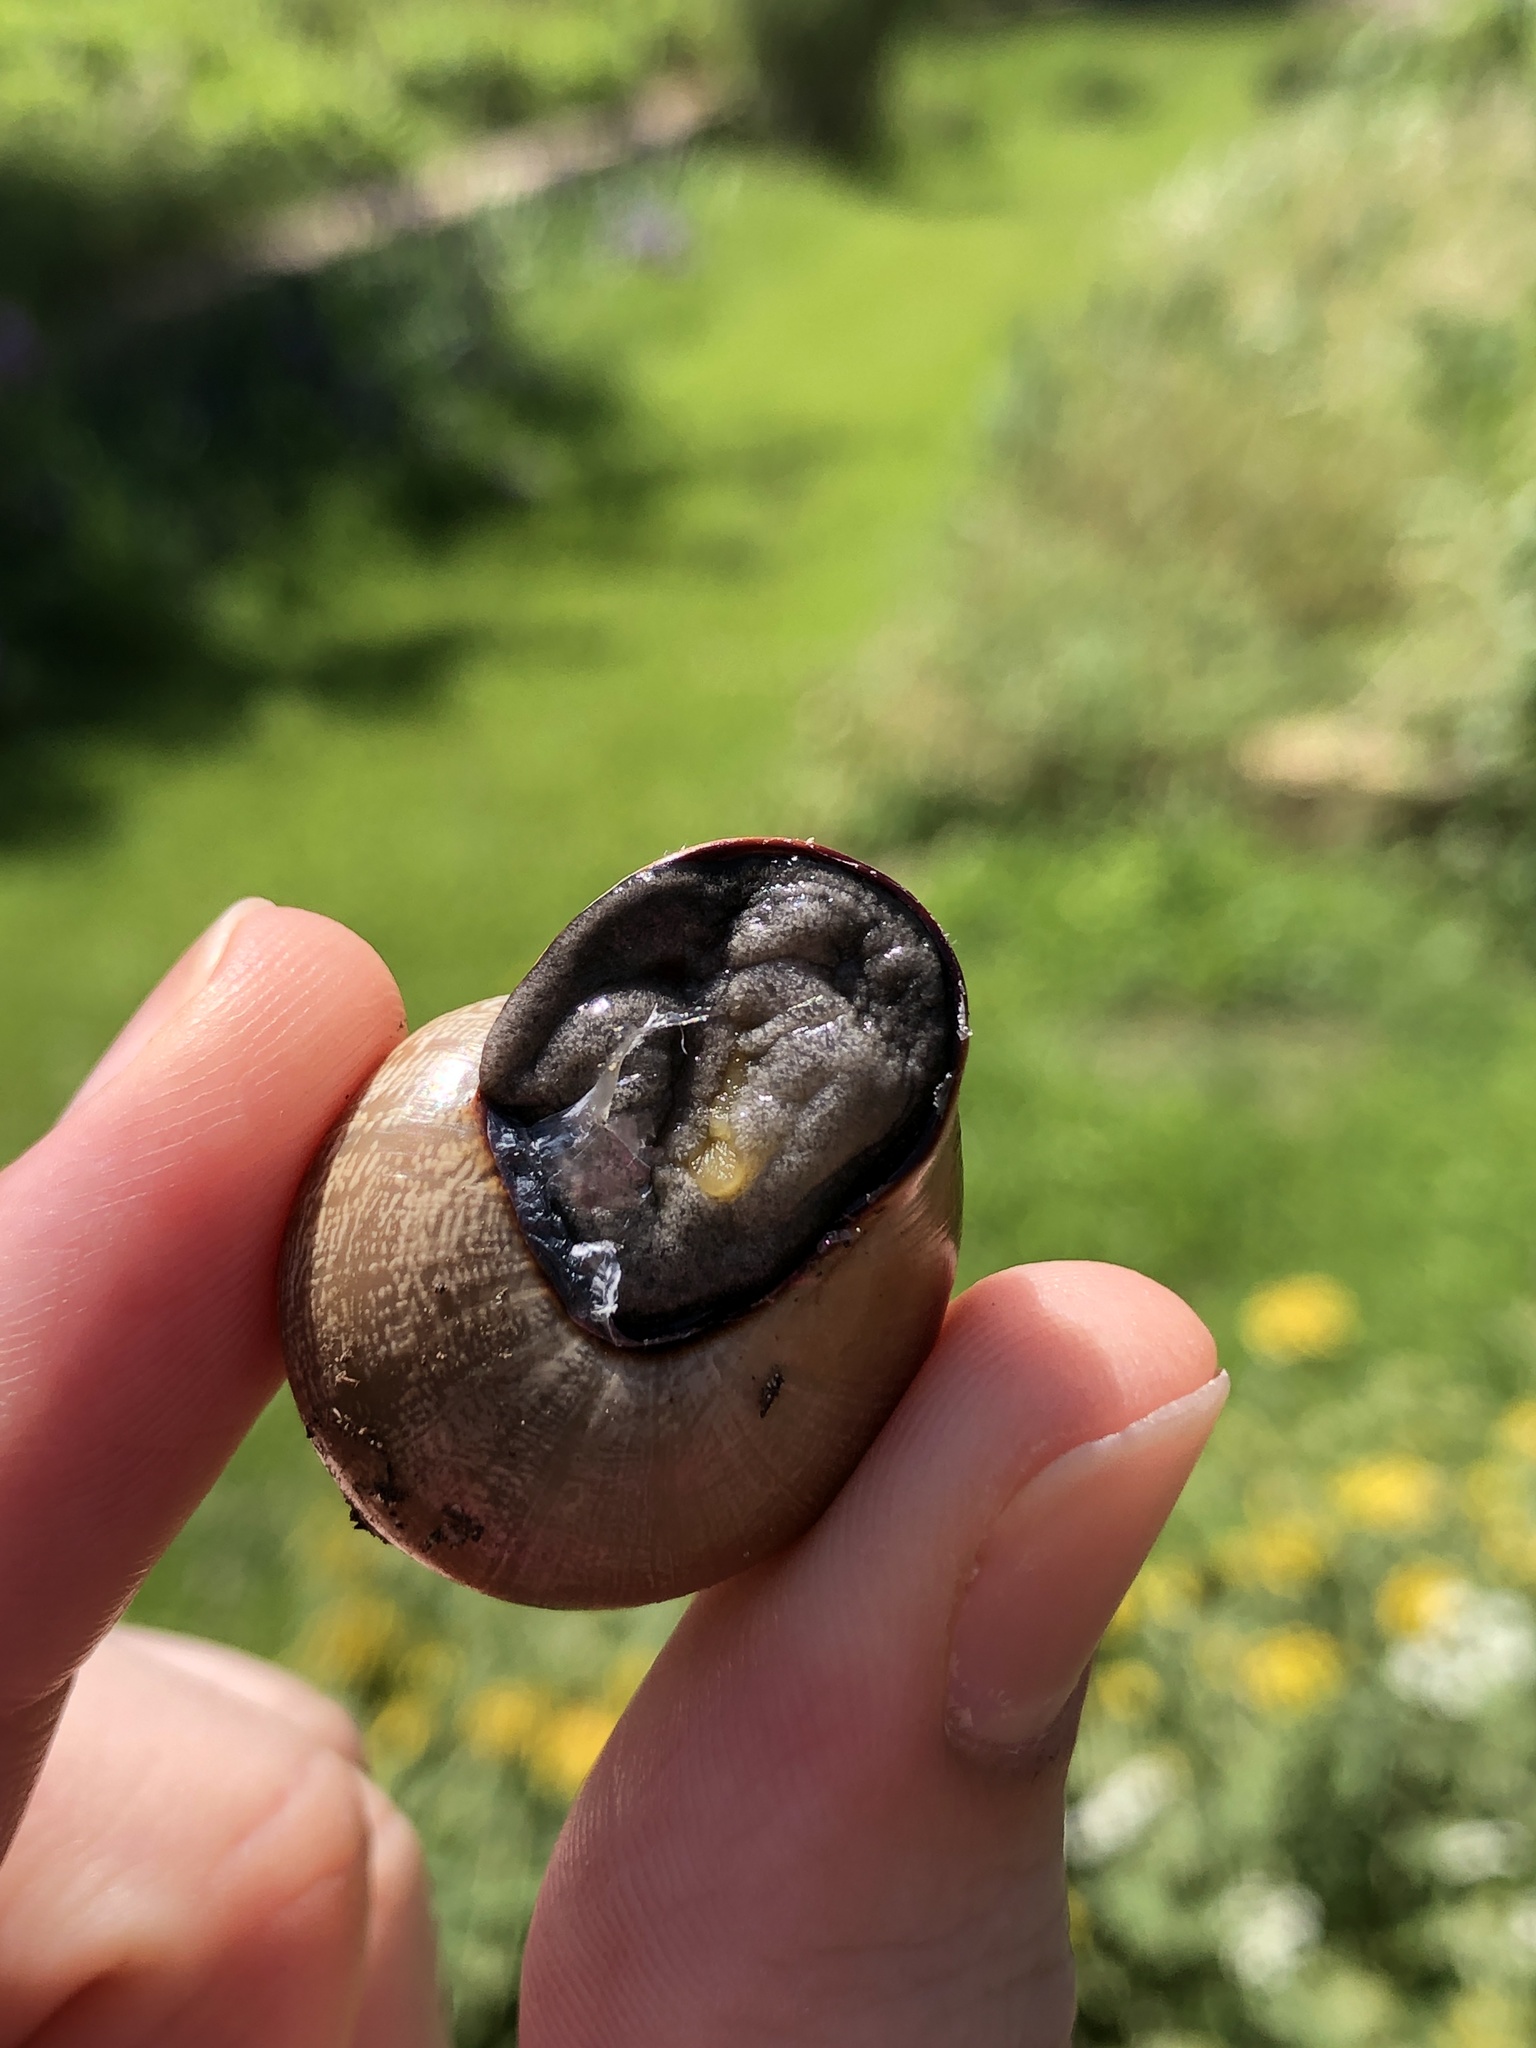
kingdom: Animalia
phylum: Mollusca
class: Gastropoda
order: Stylommatophora
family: Helicidae
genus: Otala
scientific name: Otala lactea
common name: Milk snail
